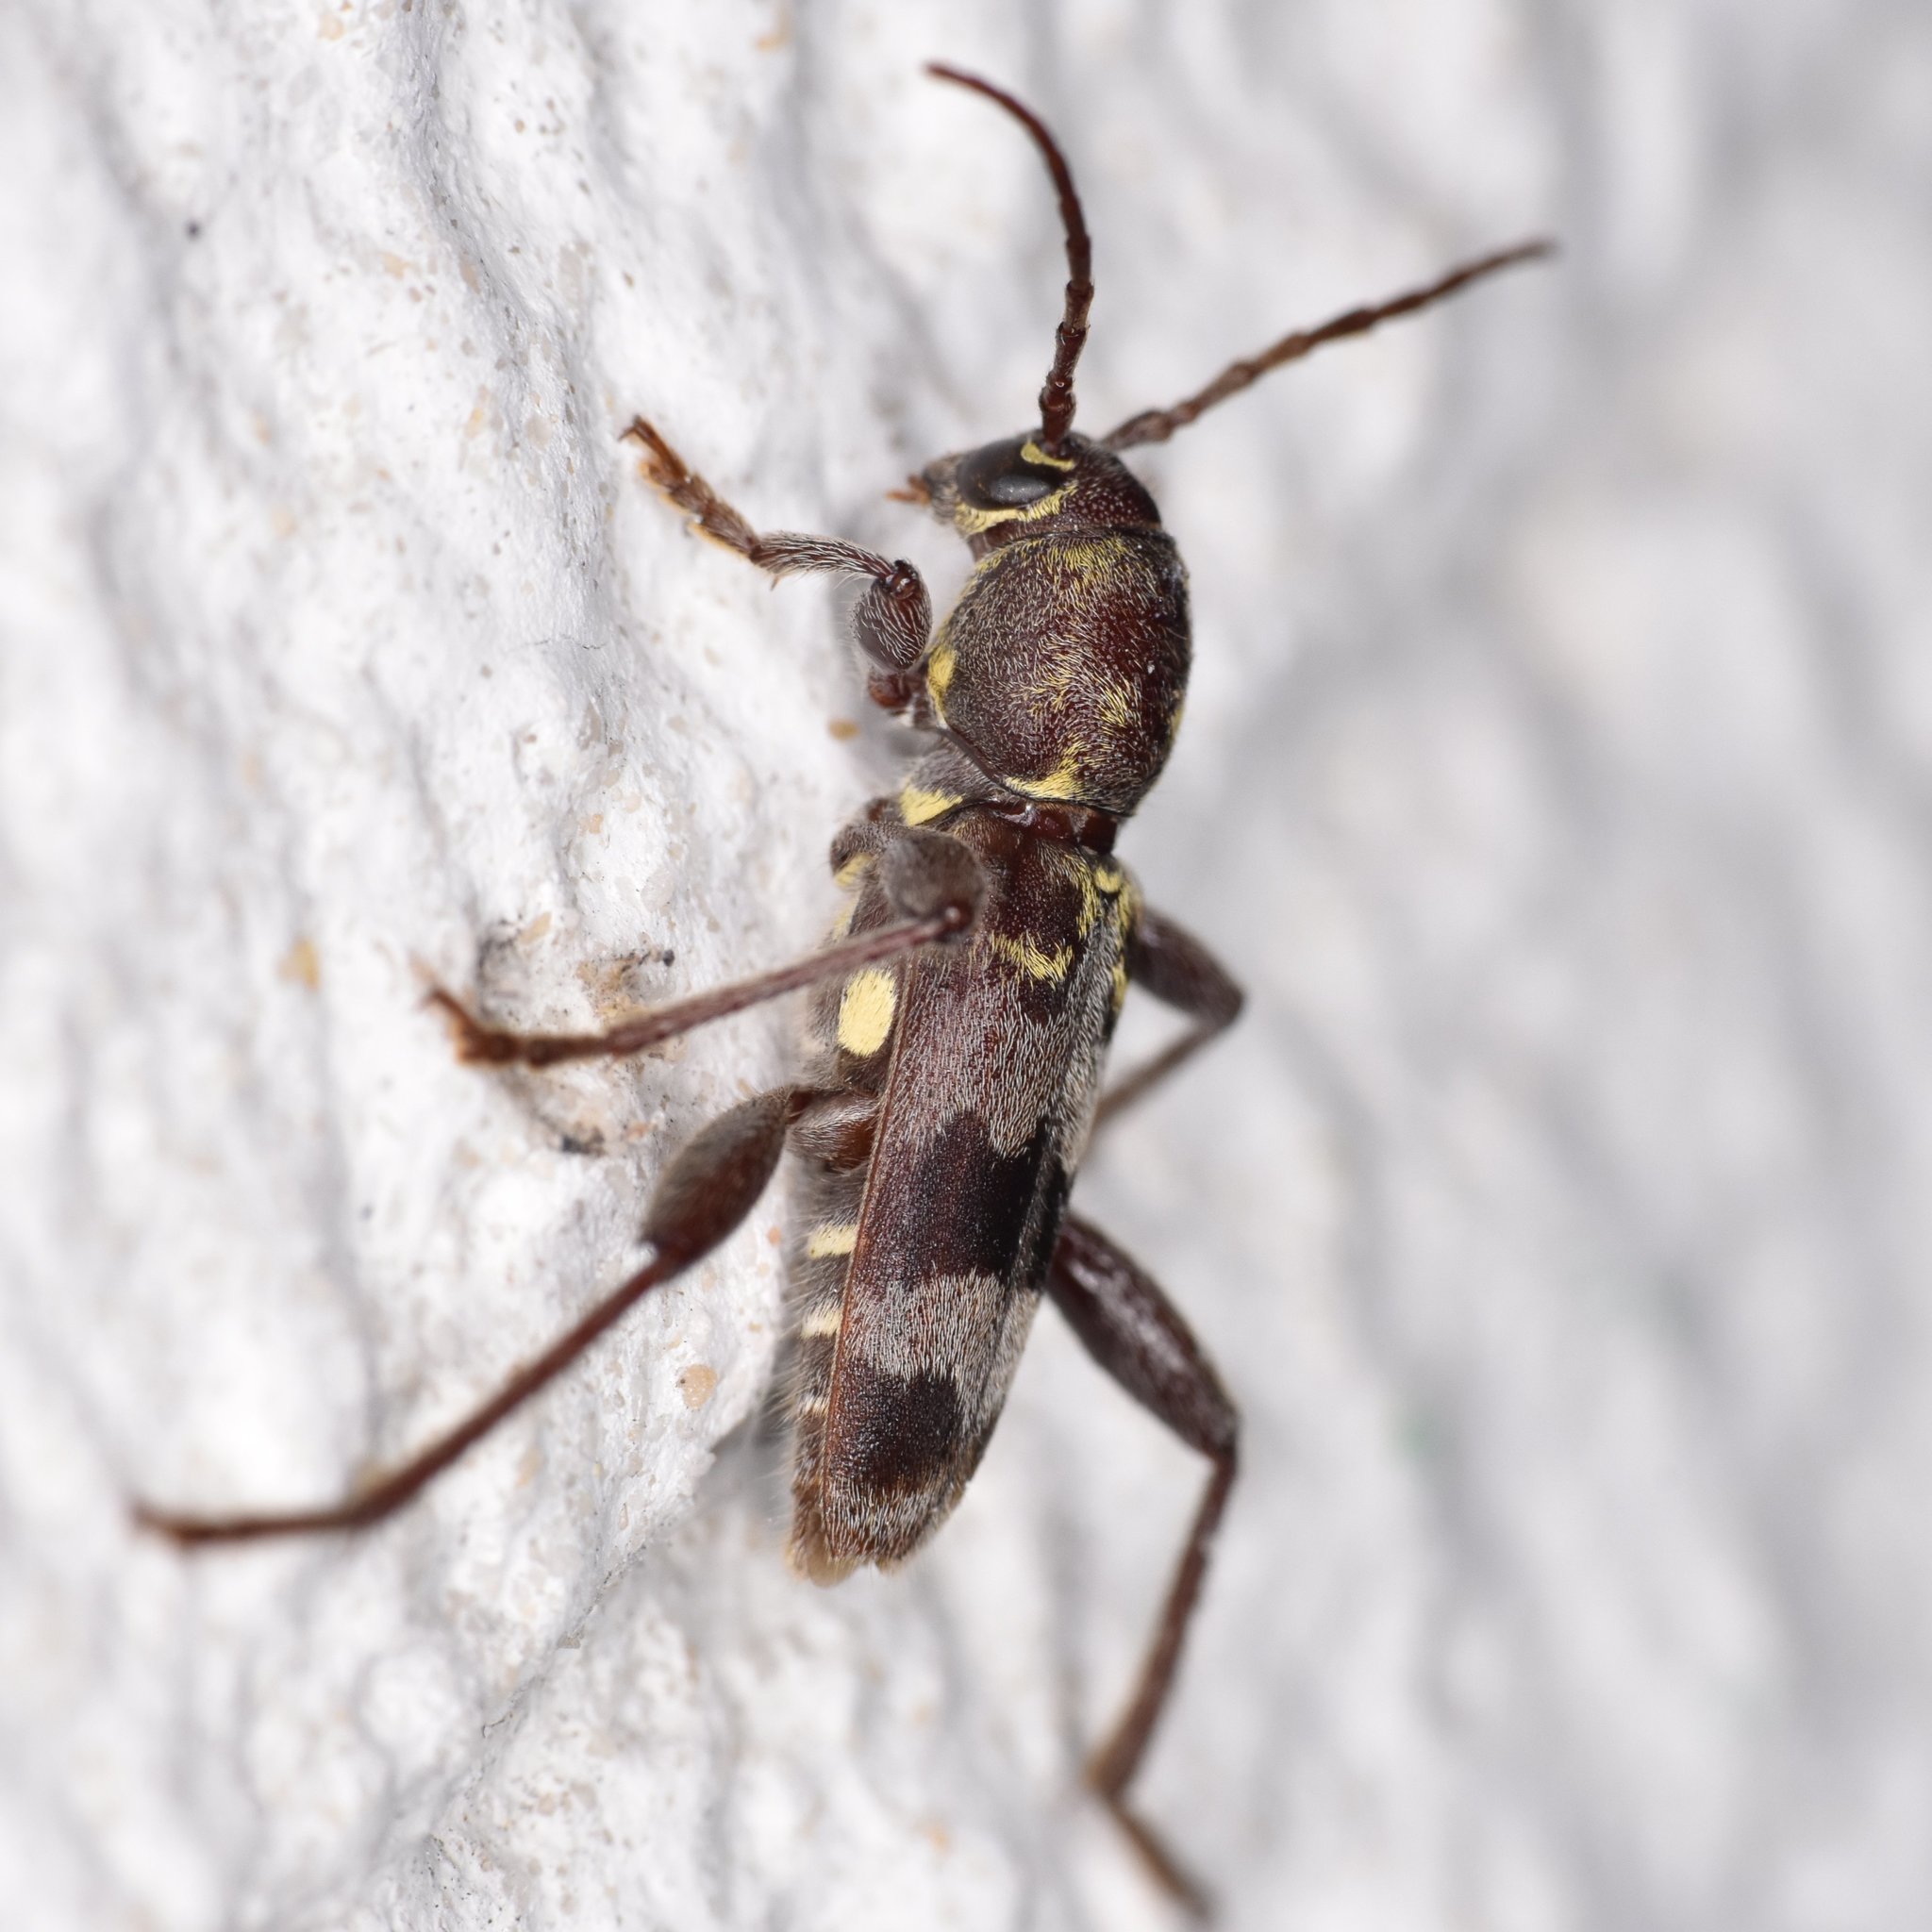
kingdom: Animalia
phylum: Arthropoda
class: Insecta
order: Coleoptera
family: Cerambycidae
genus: Xylotrechus
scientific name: Xylotrechus colonus
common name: Long-horned beetle
